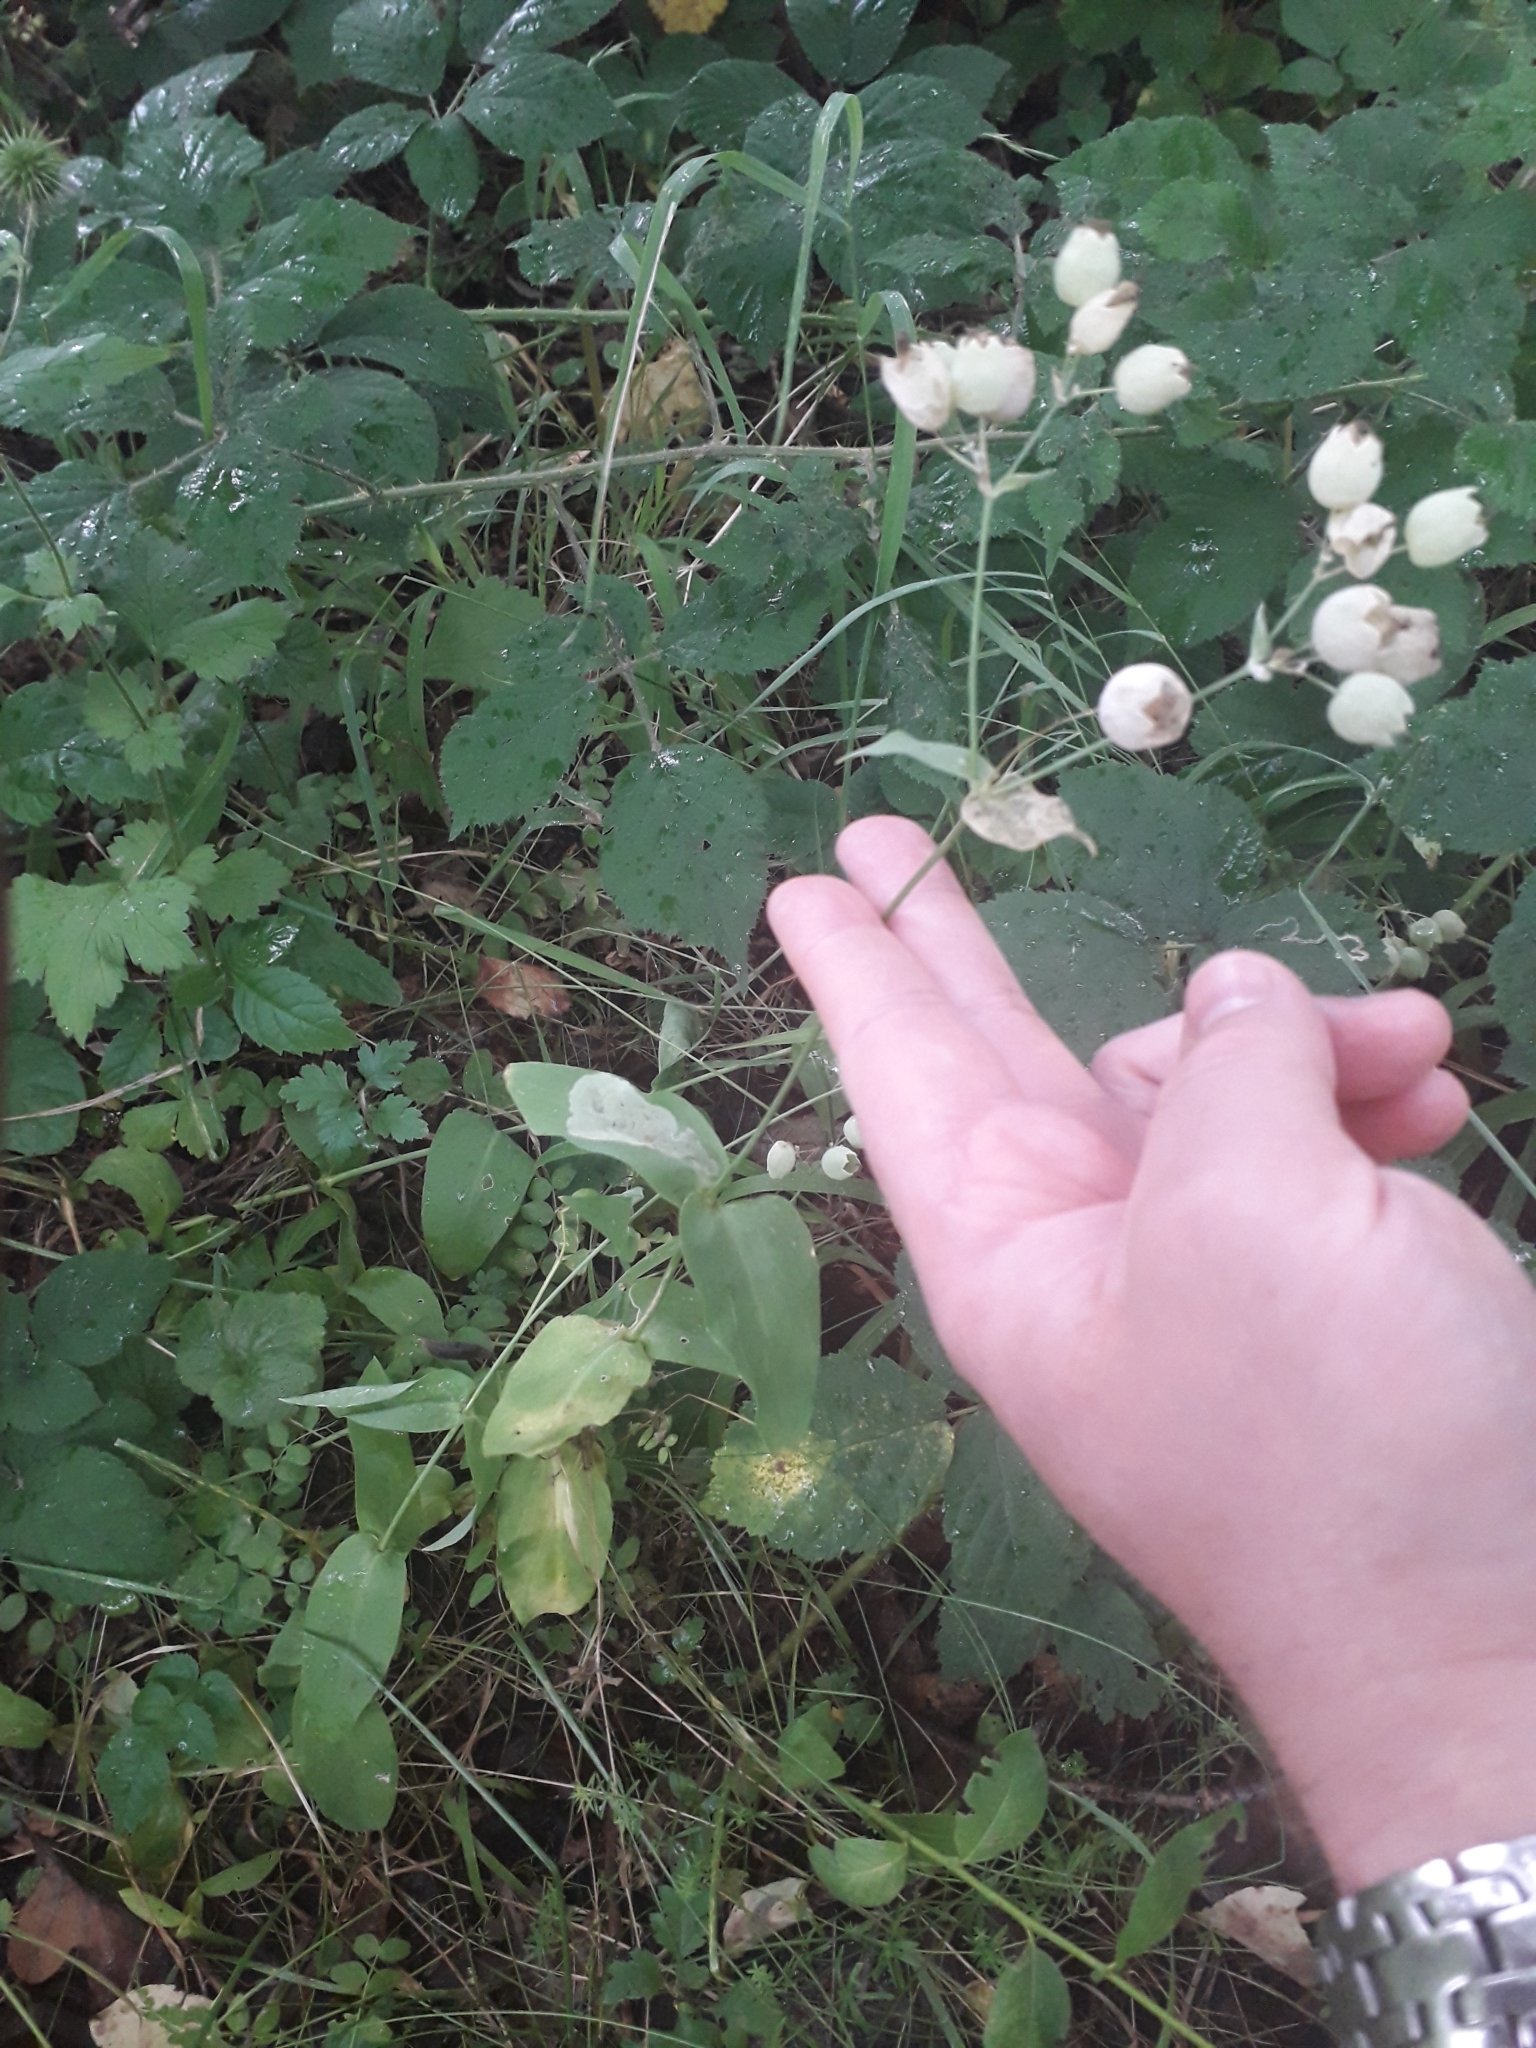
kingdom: Plantae
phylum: Tracheophyta
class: Magnoliopsida
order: Caryophyllales
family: Caryophyllaceae
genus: Silene
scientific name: Silene vulgaris
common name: Bladder campion
